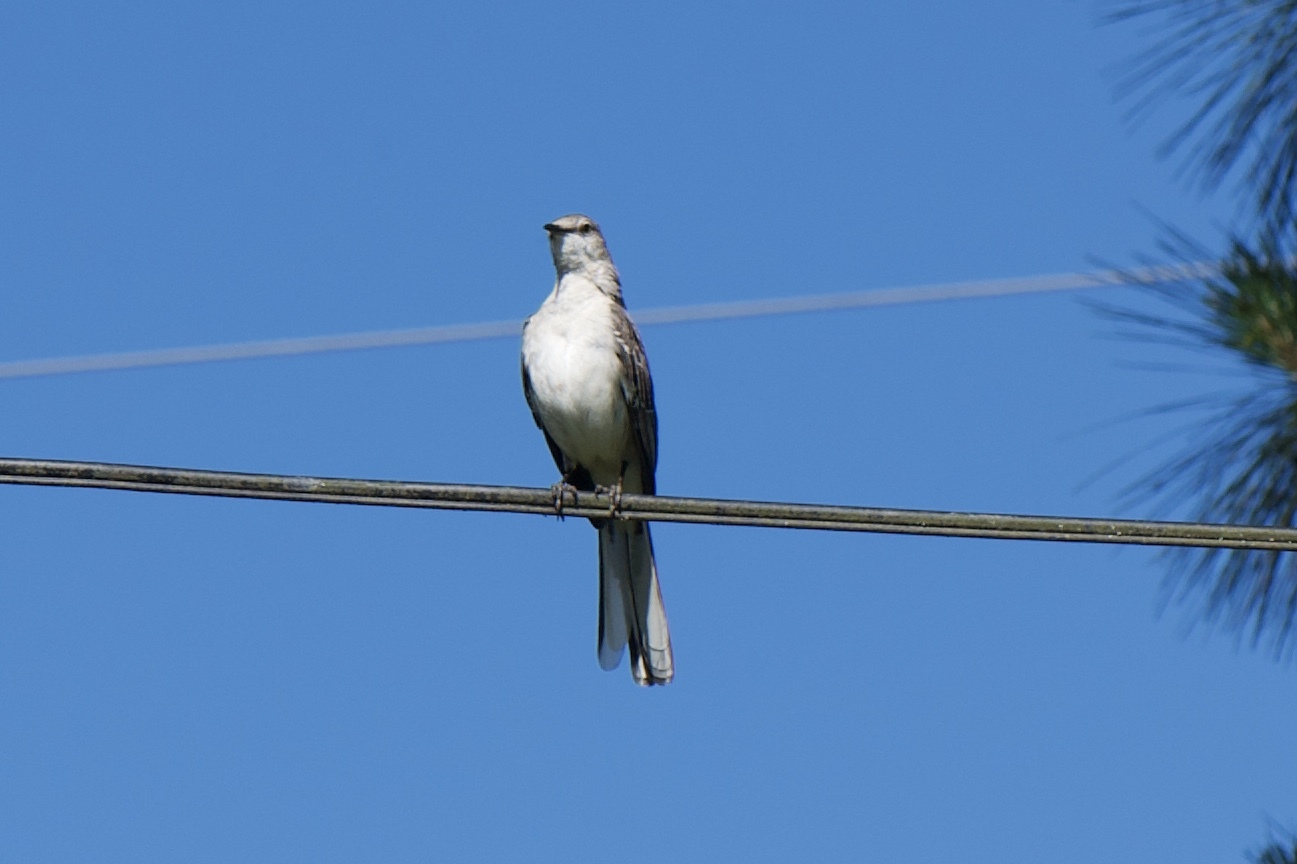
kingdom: Animalia
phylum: Chordata
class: Aves
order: Passeriformes
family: Mimidae
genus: Mimus
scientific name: Mimus polyglottos
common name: Northern mockingbird
